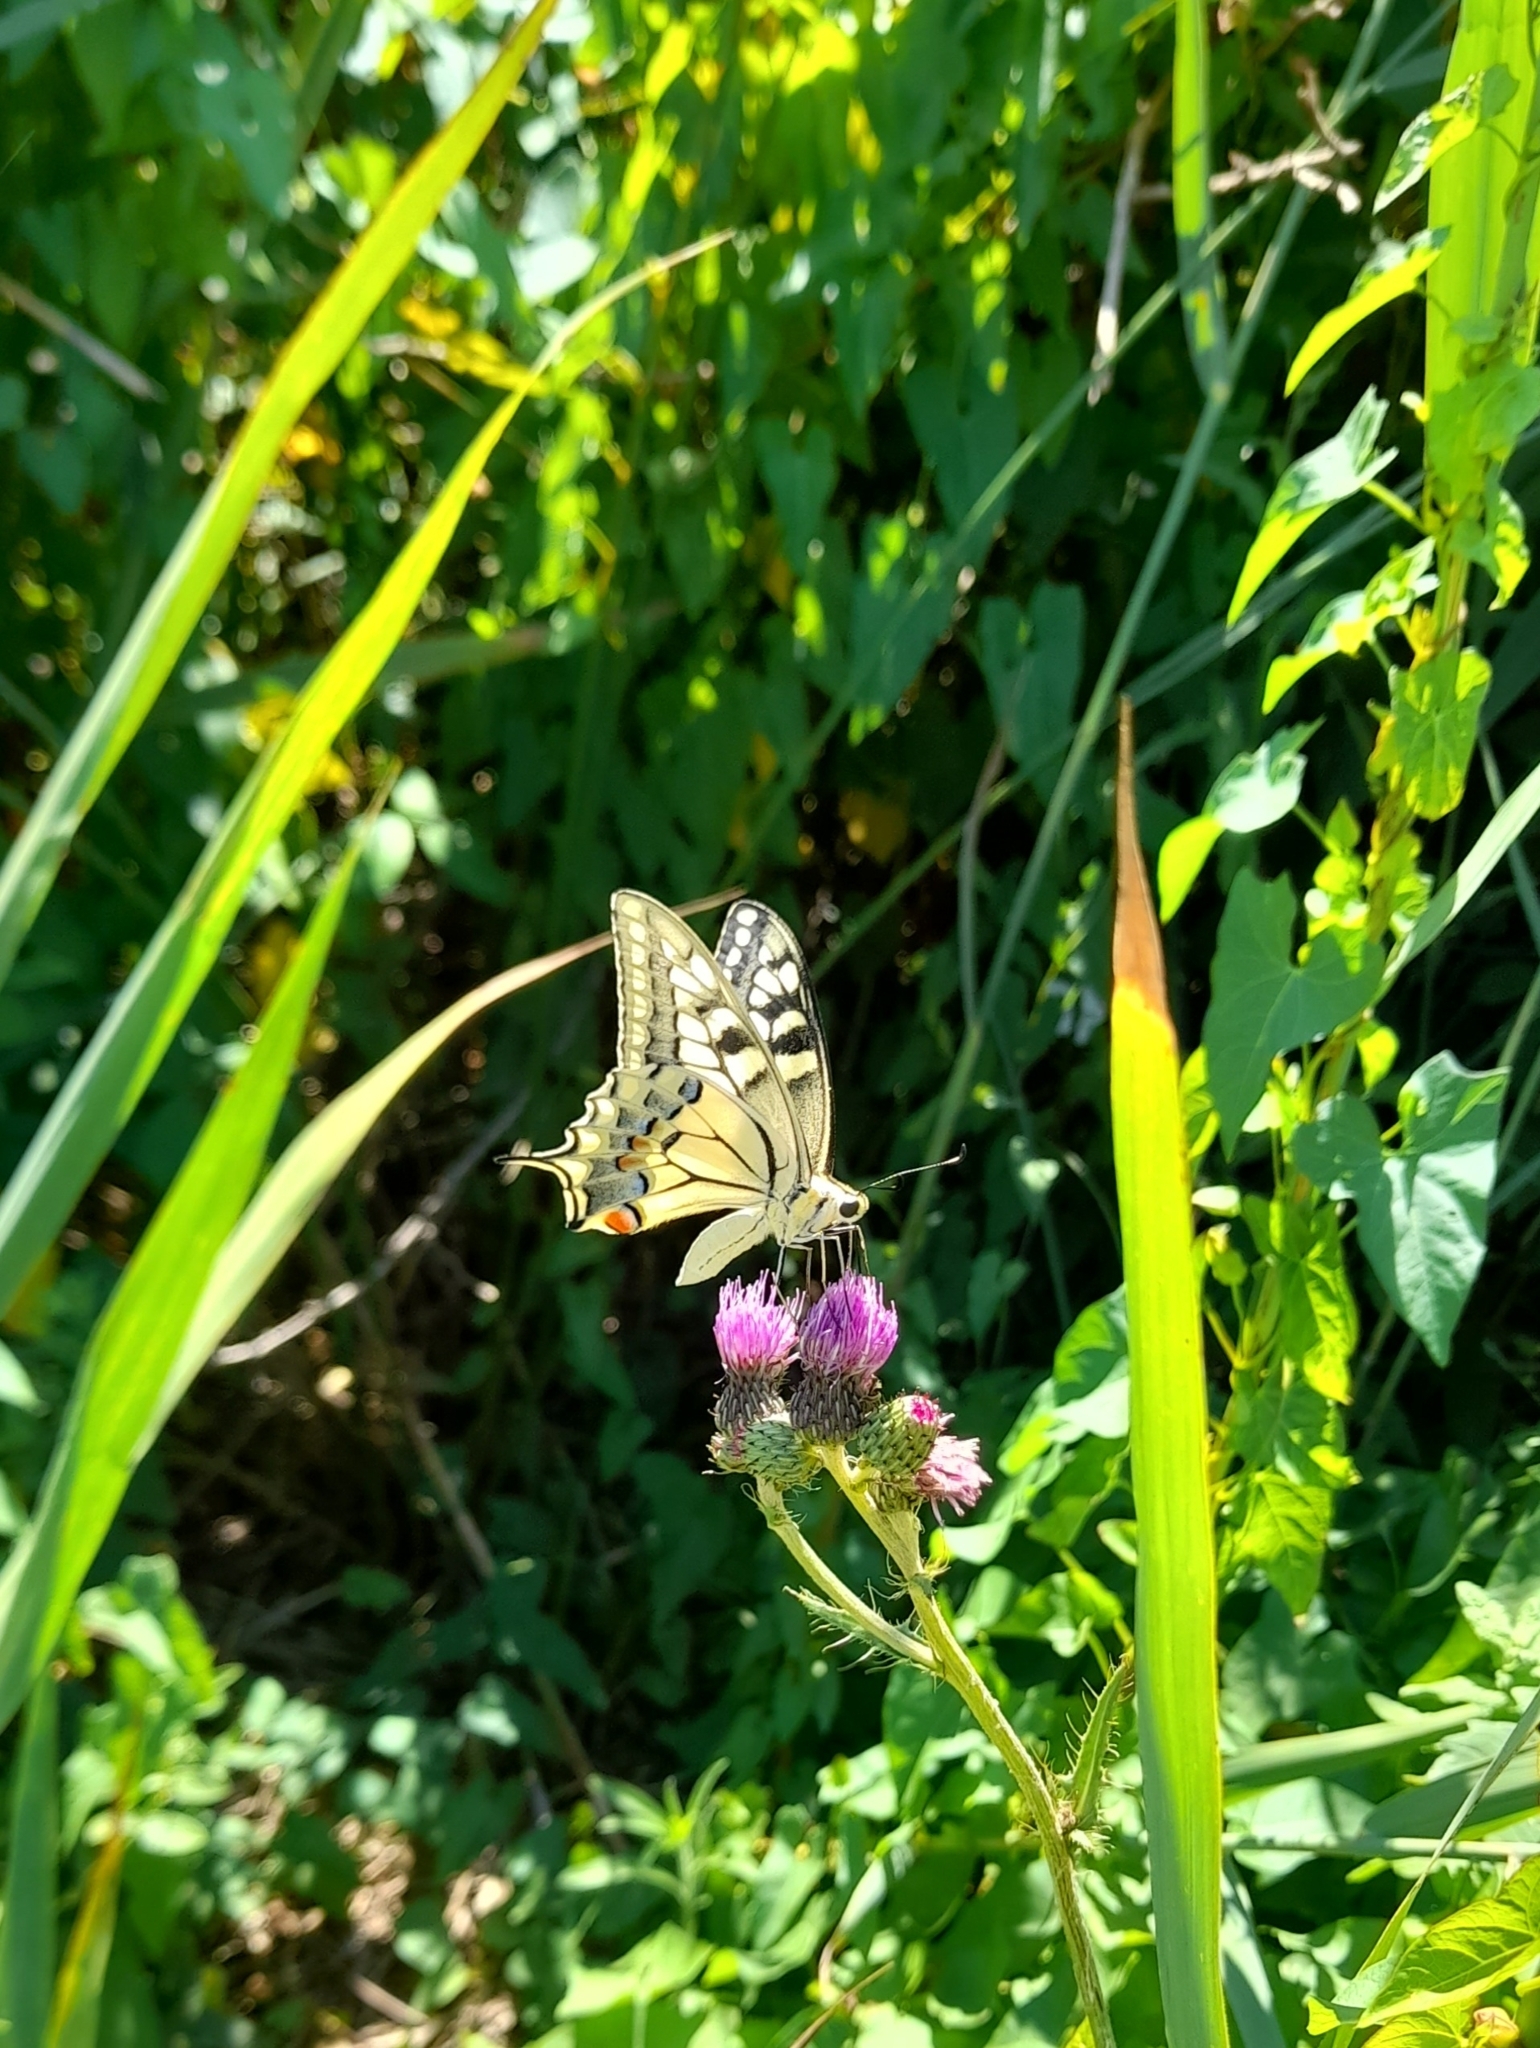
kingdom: Animalia
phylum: Arthropoda
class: Insecta
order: Lepidoptera
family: Papilionidae
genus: Papilio
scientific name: Papilio machaon
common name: Swallowtail
